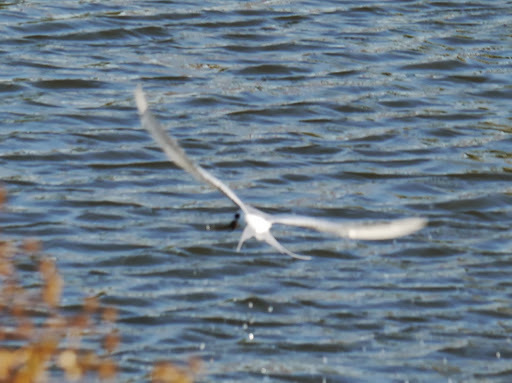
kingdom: Animalia
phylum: Chordata
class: Aves
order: Charadriiformes
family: Laridae
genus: Sterna
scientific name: Sterna forsteri
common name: Forster's tern
